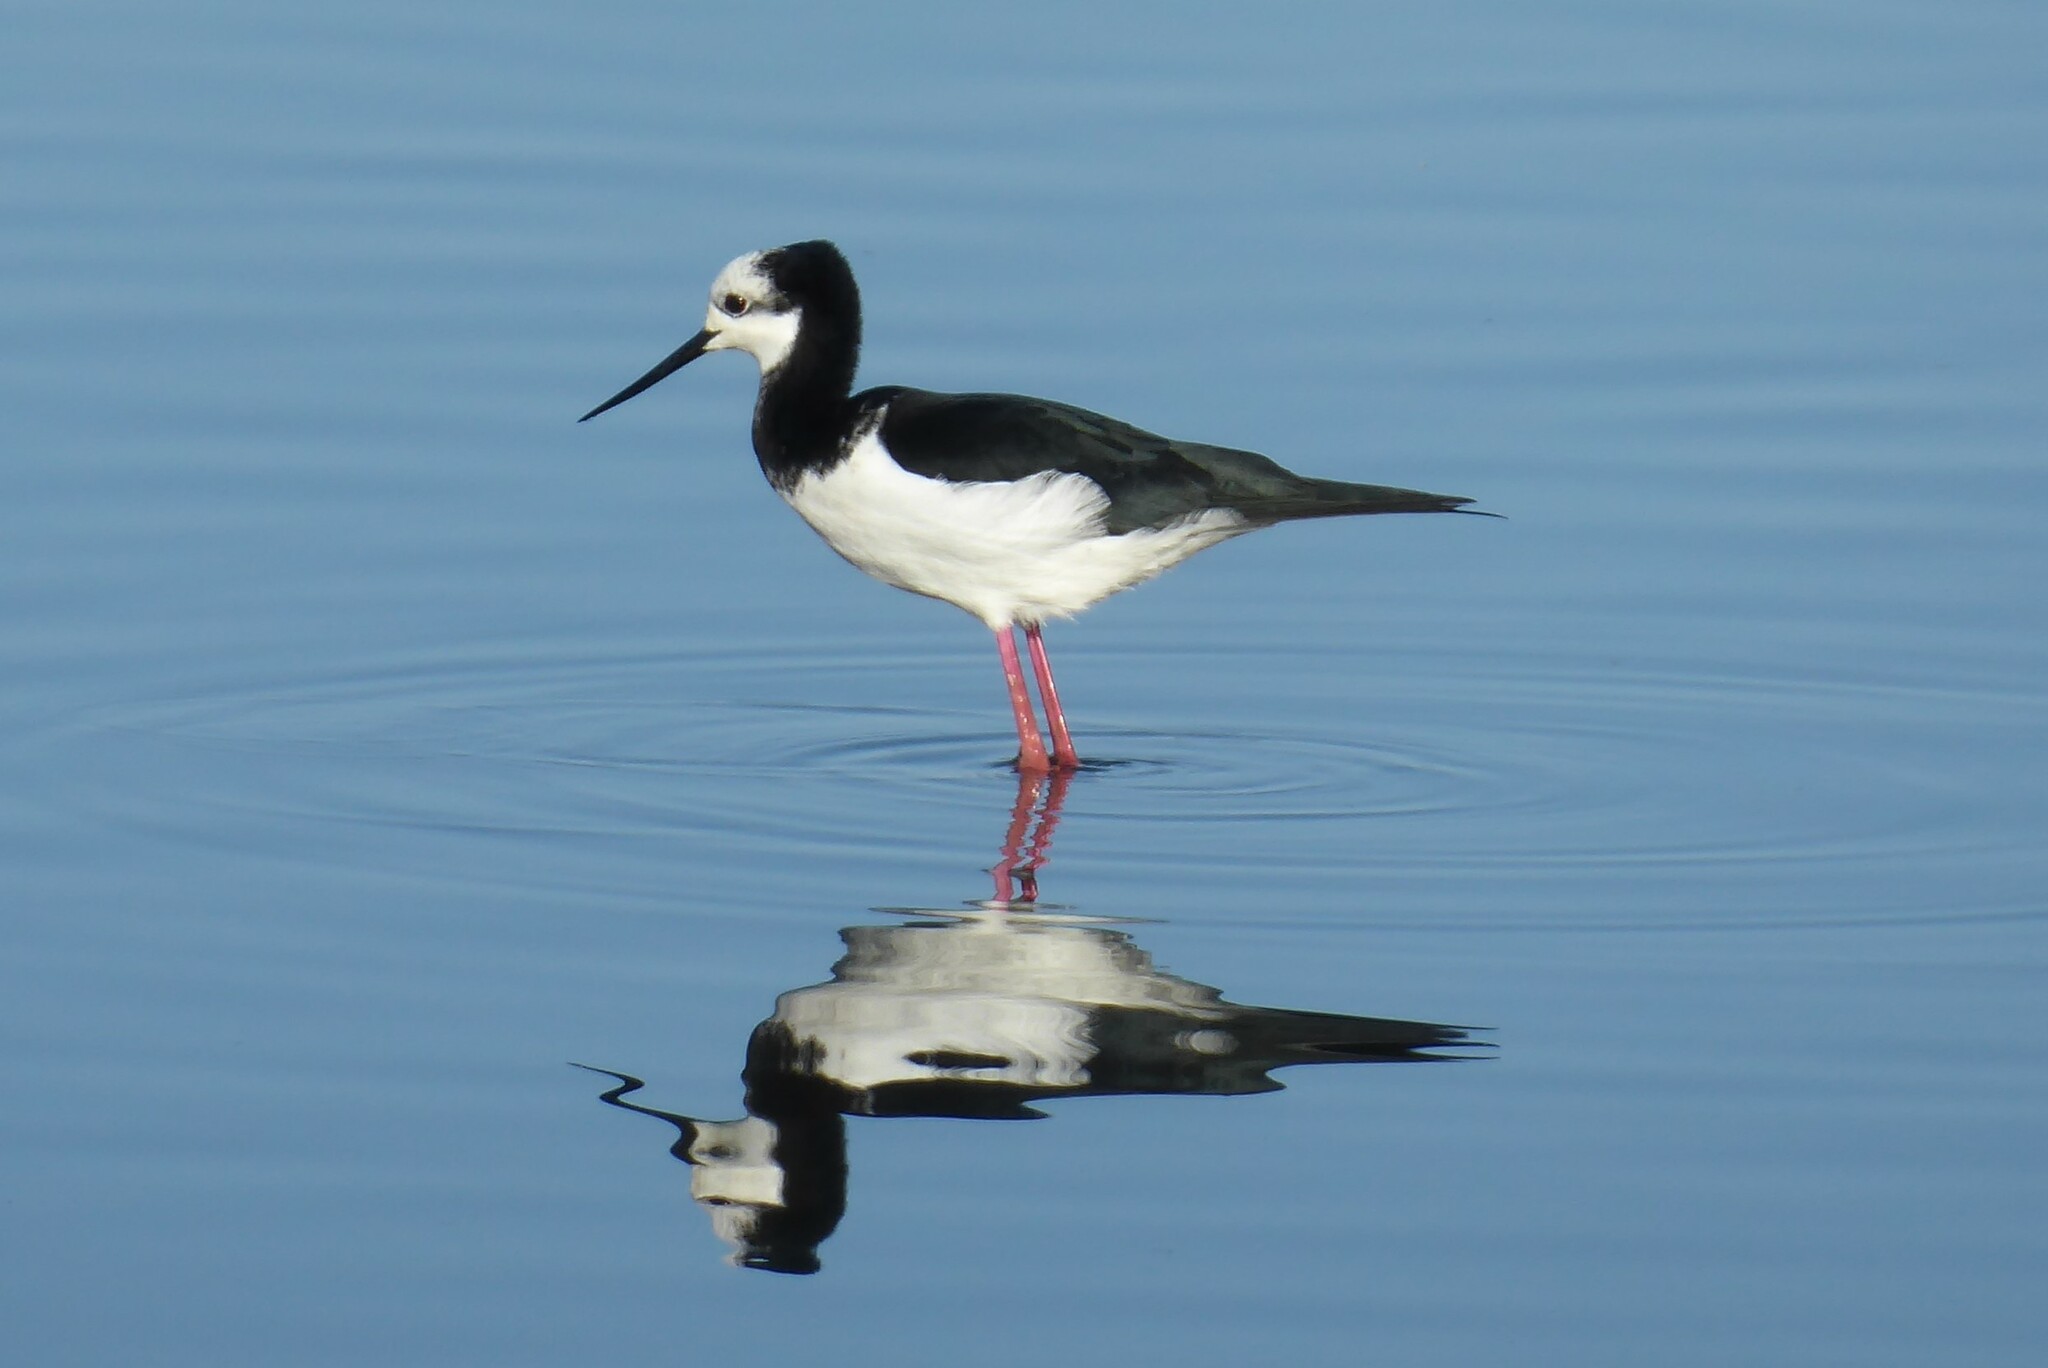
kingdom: Animalia
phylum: Chordata
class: Aves
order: Charadriiformes
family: Recurvirostridae
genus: Himantopus
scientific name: Himantopus
